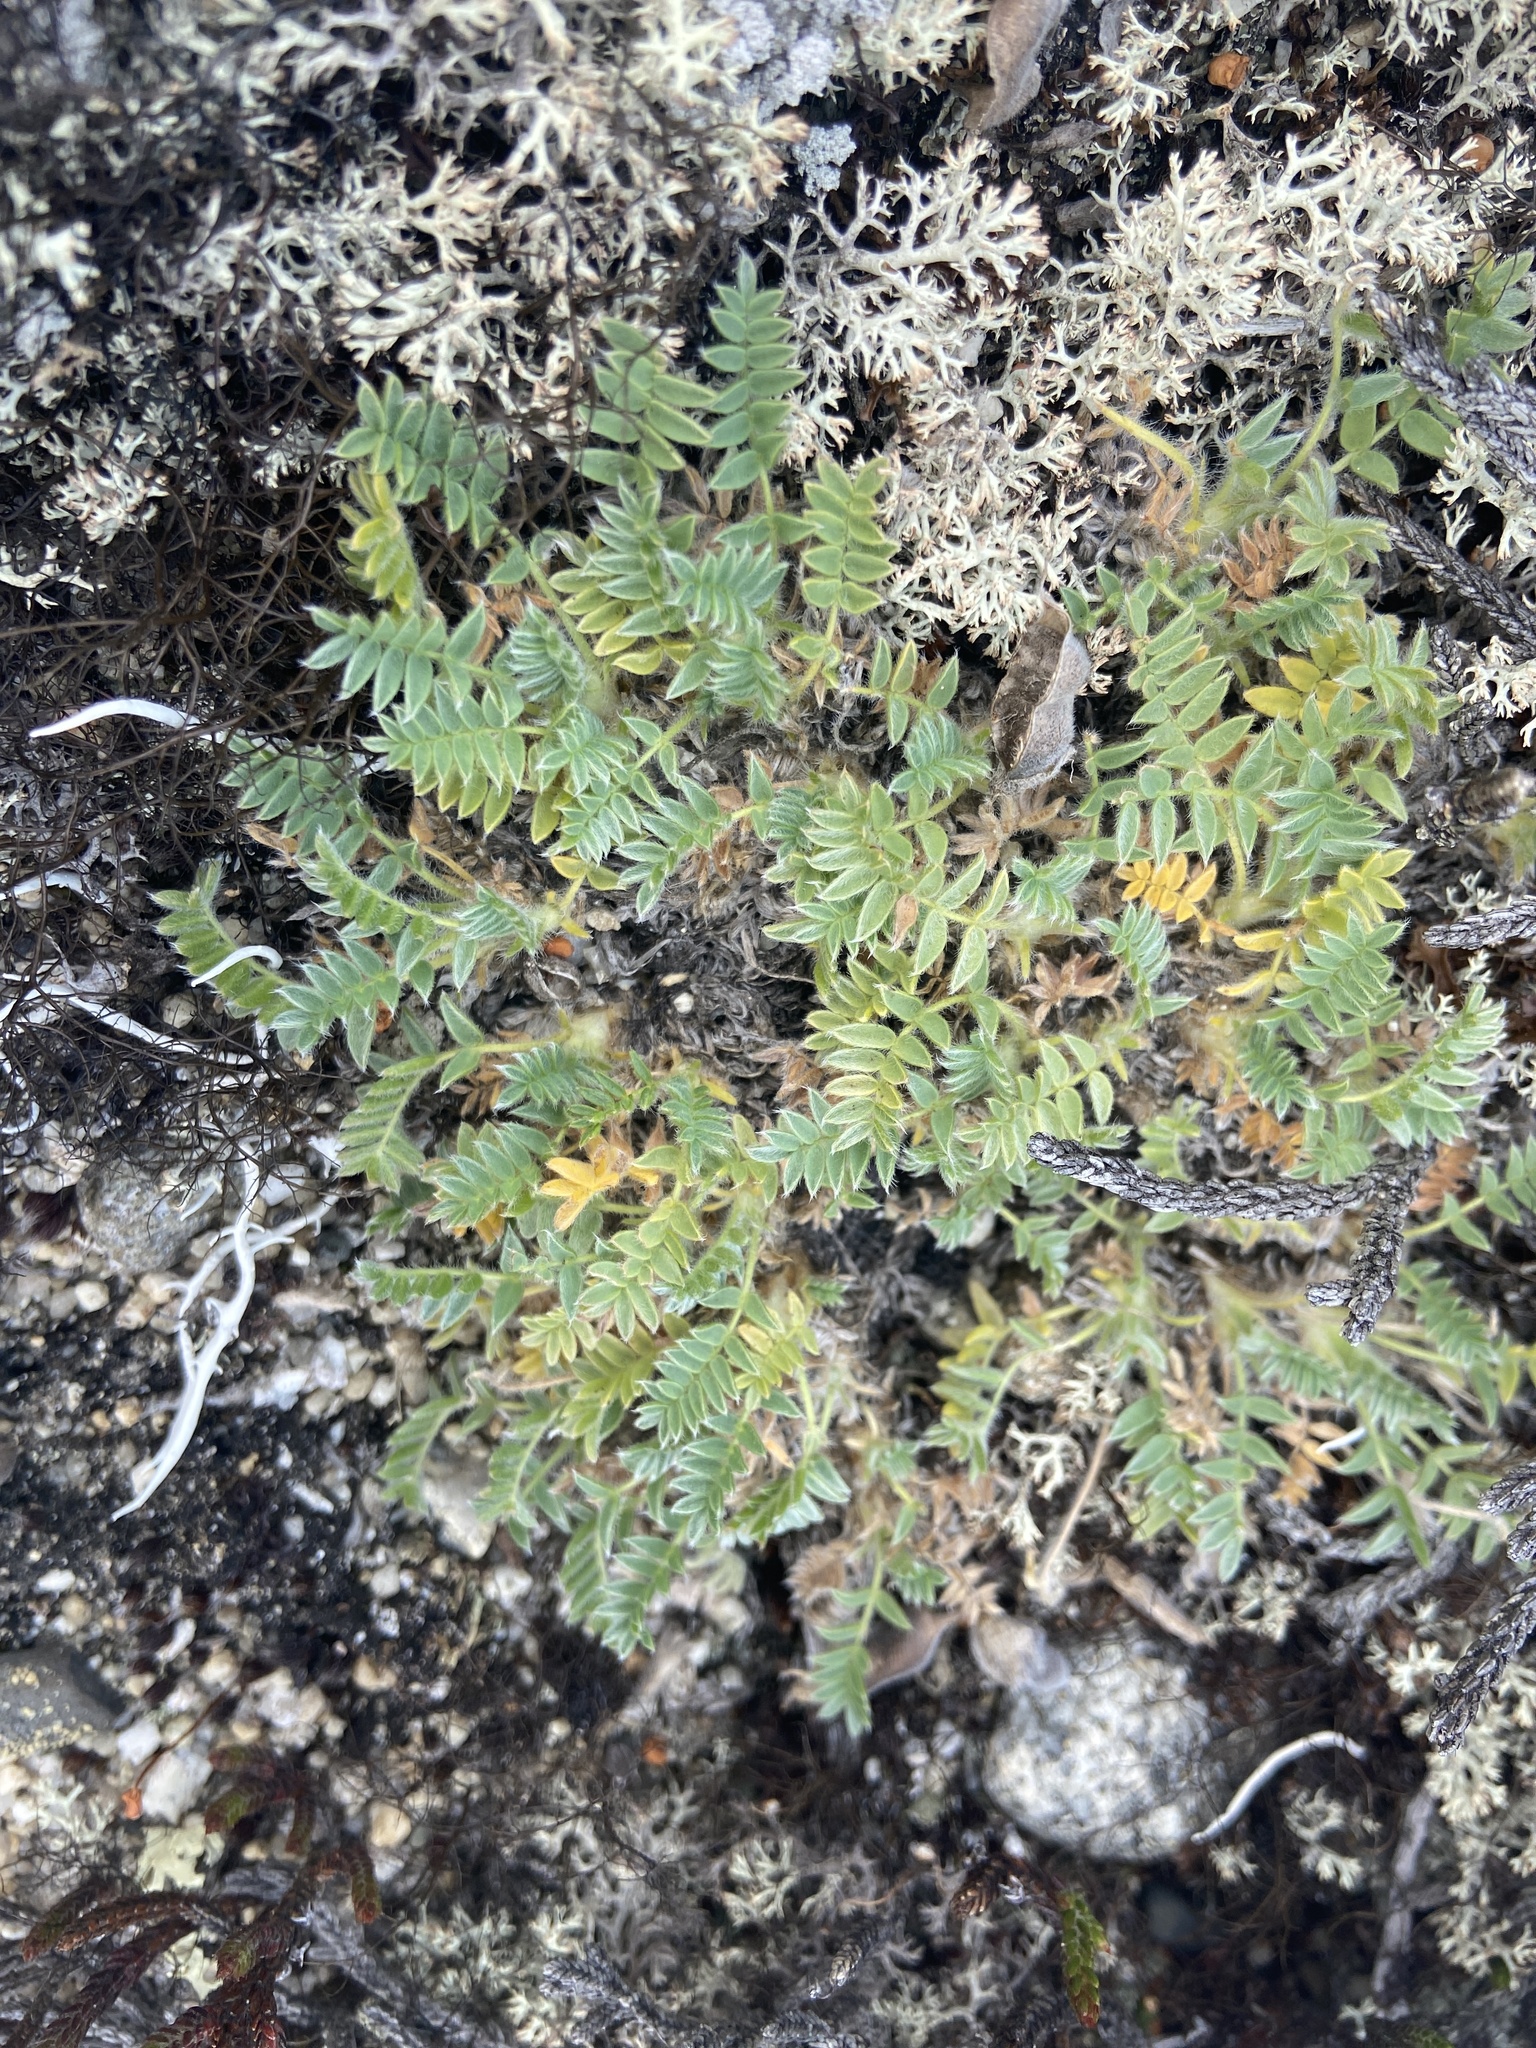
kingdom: Plantae
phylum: Tracheophyta
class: Magnoliopsida
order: Fabales
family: Fabaceae
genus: Oxytropis
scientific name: Oxytropis susumanica
